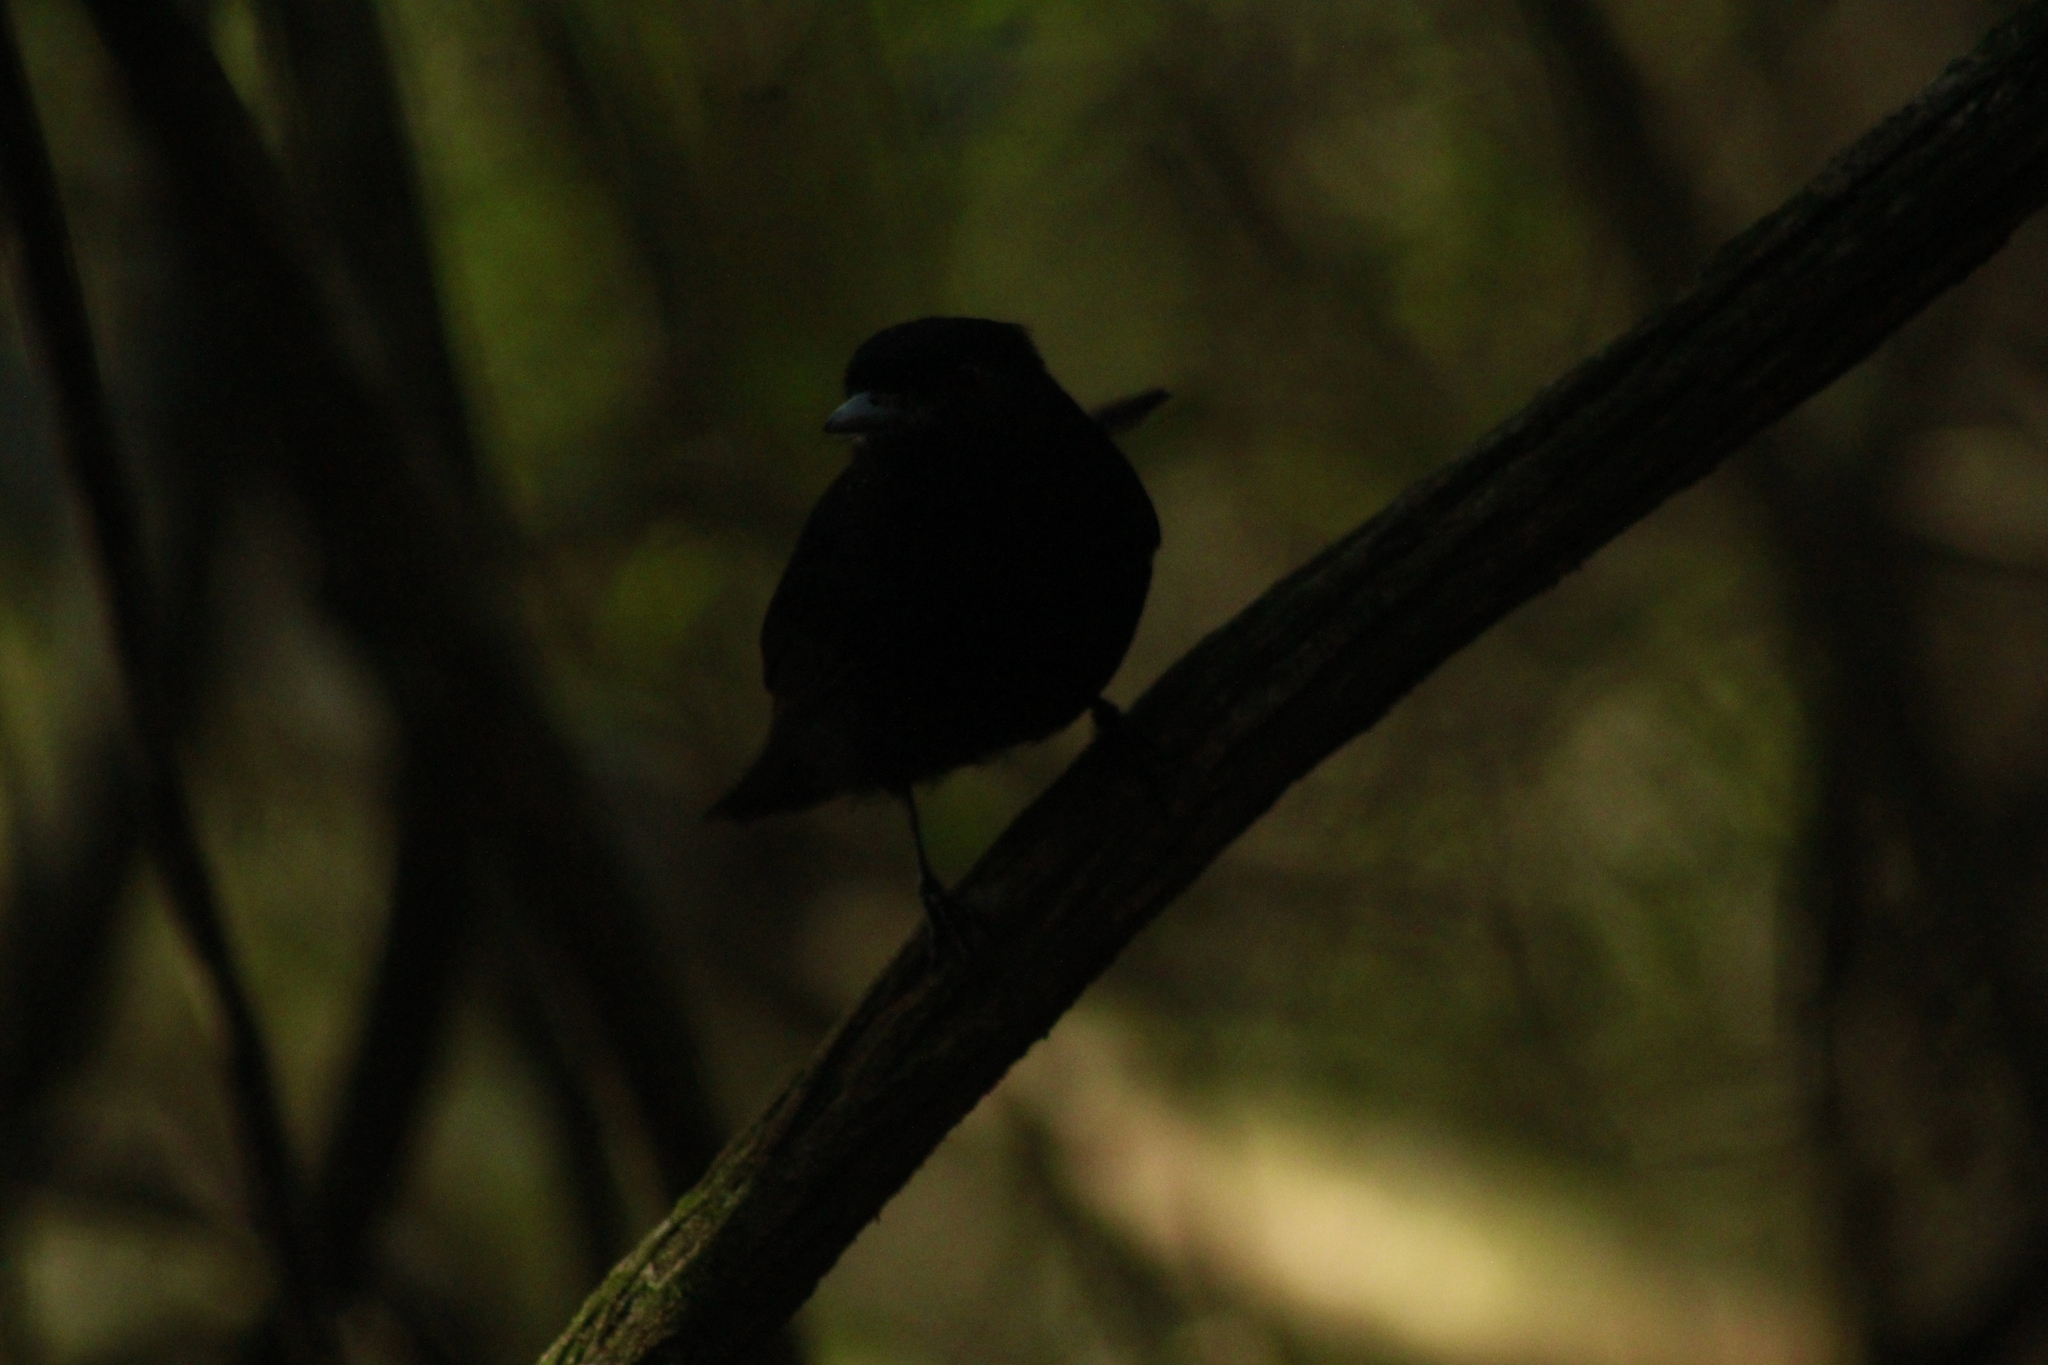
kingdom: Animalia
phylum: Chordata
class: Aves
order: Passeriformes
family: Tyrannidae
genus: Knipolegus
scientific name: Knipolegus cyanirostris
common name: Blue-billed black tyrant
